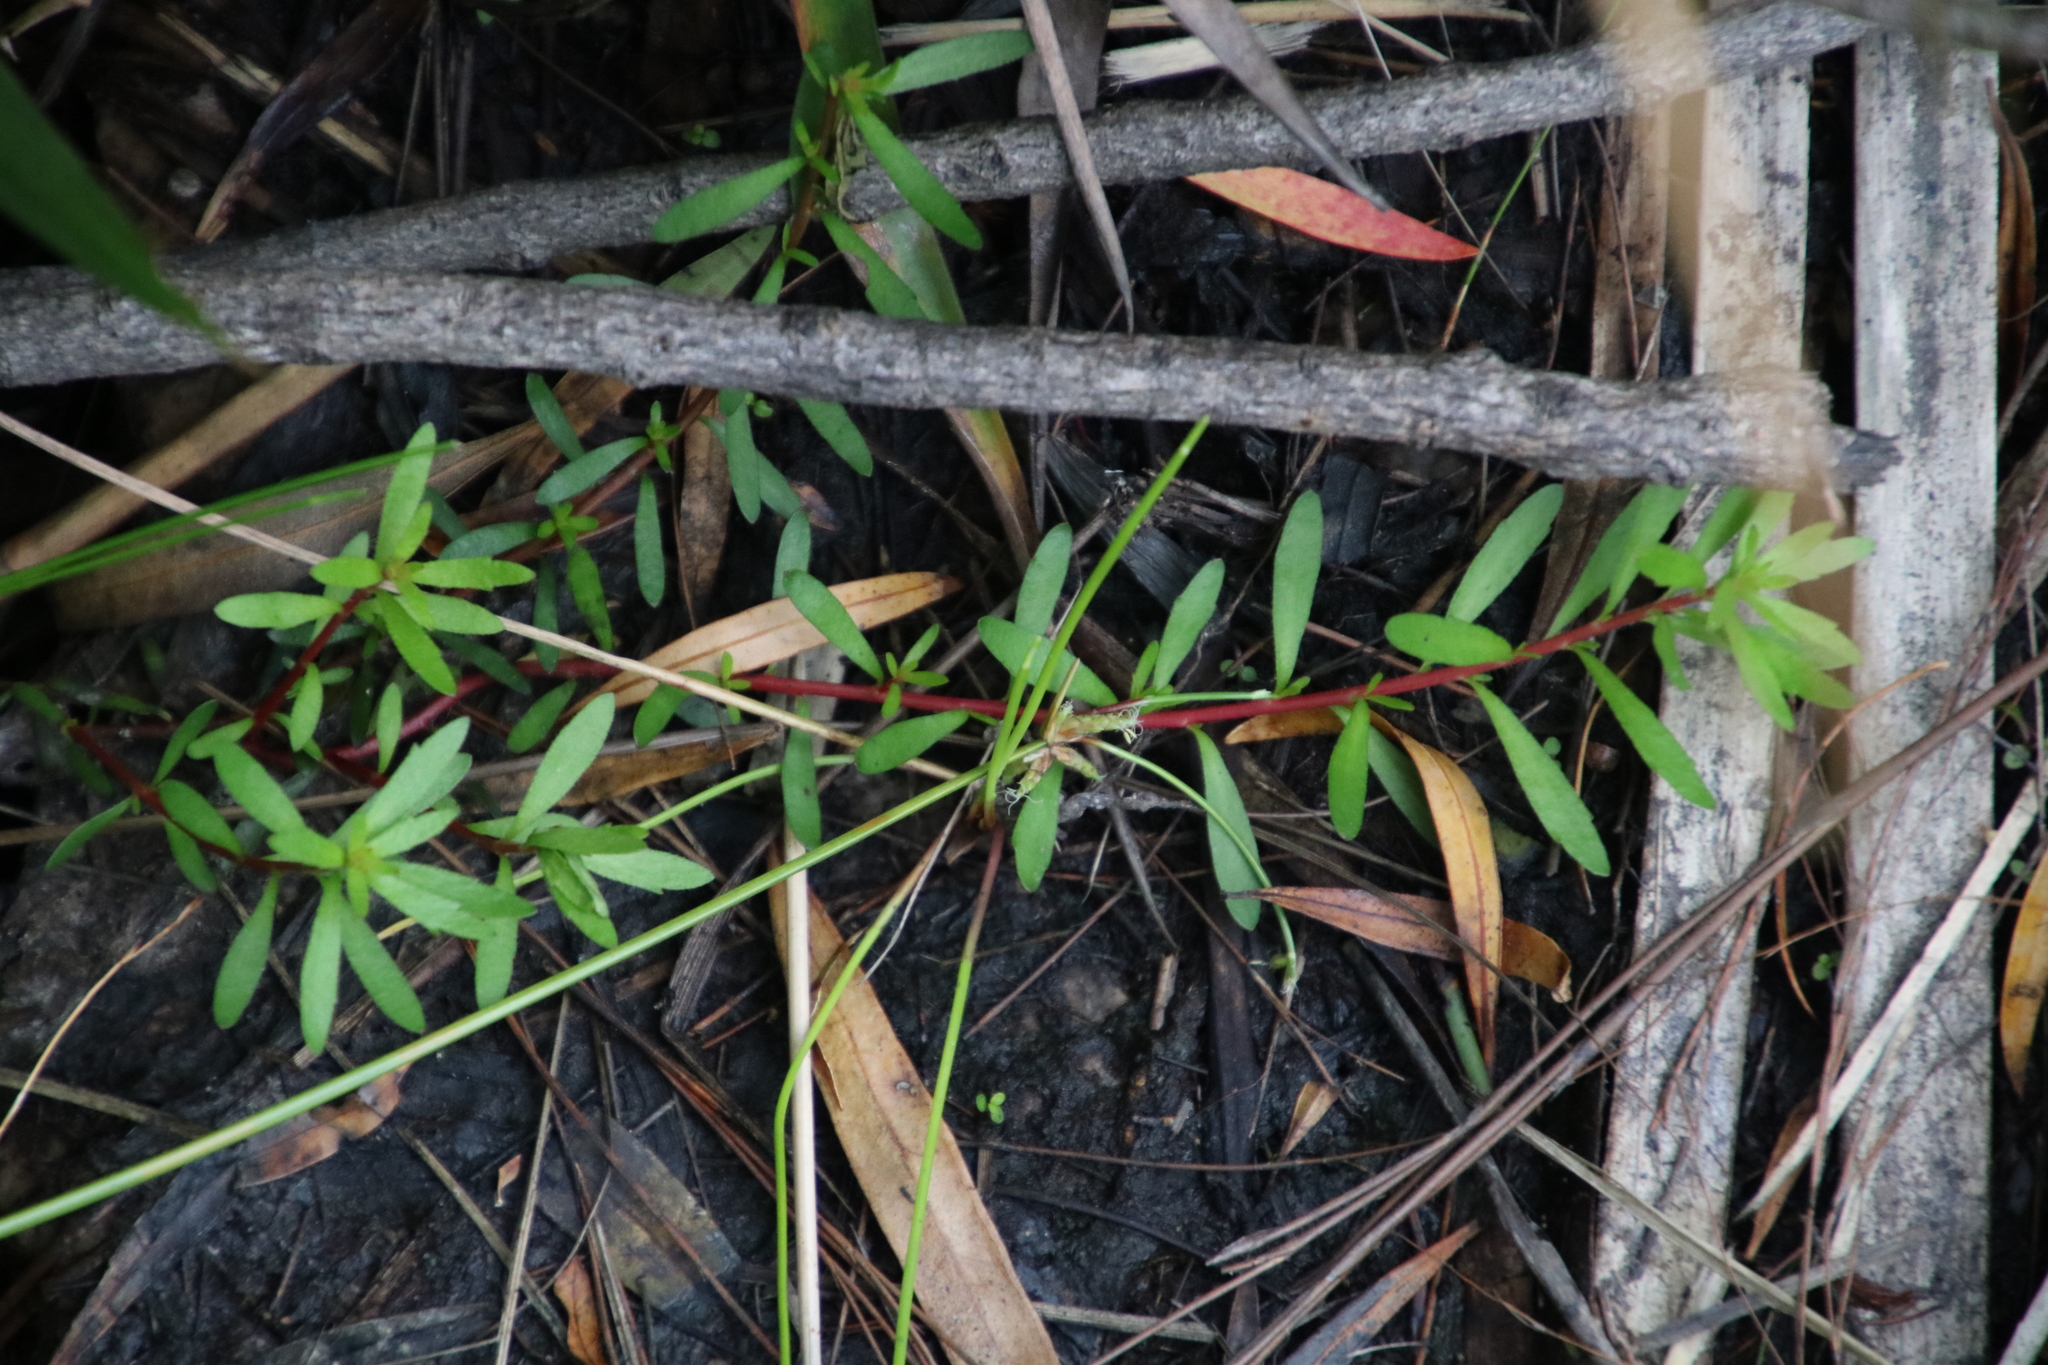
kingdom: Plantae
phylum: Tracheophyta
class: Magnoliopsida
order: Saxifragales
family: Haloragaceae
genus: Laurembergia
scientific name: Laurembergia repens
